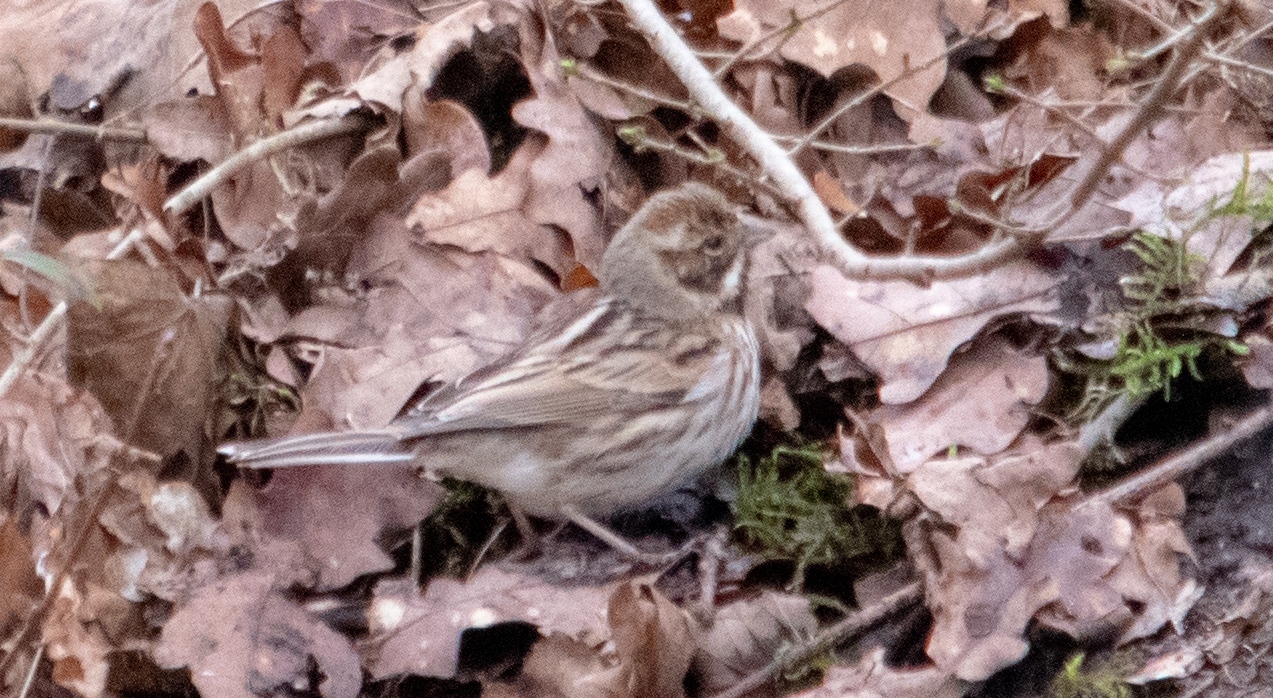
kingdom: Animalia
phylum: Chordata
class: Aves
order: Passeriformes
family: Emberizidae
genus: Emberiza
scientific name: Emberiza schoeniclus
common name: Reed bunting
